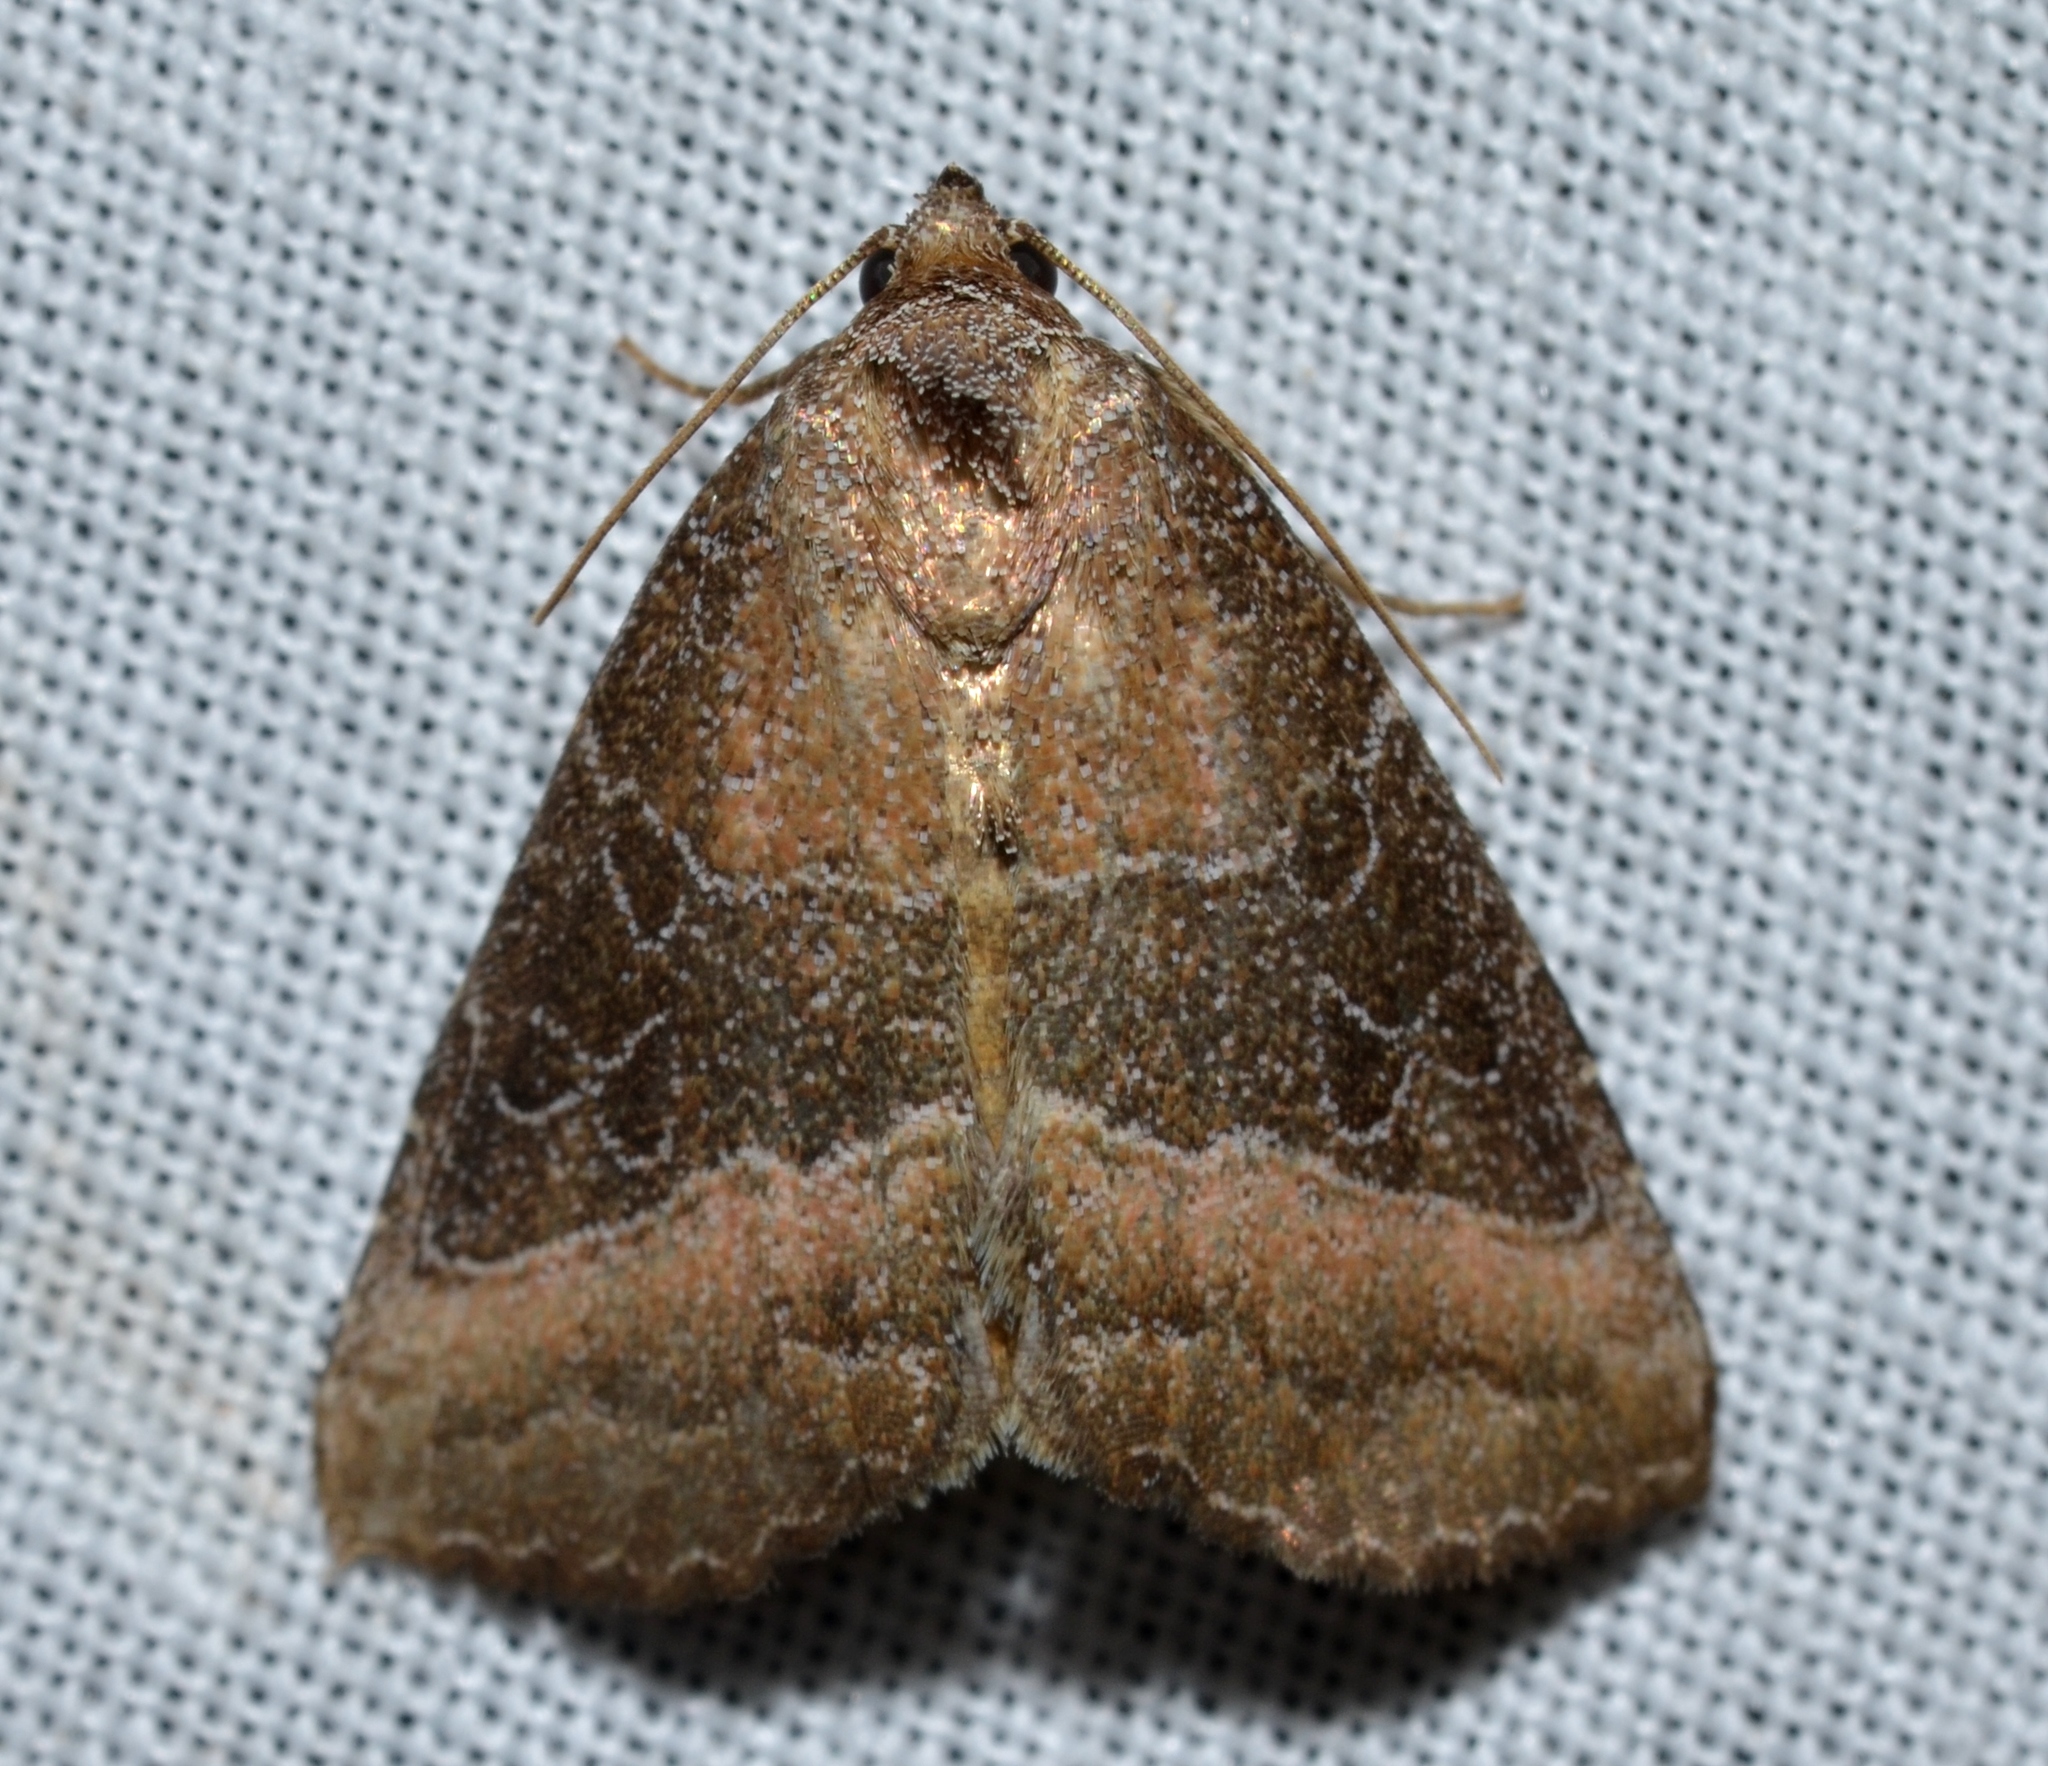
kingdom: Animalia
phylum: Arthropoda
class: Insecta
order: Lepidoptera
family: Noctuidae
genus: Ogdoconta
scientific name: Ogdoconta cinereola
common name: Common pinkband
